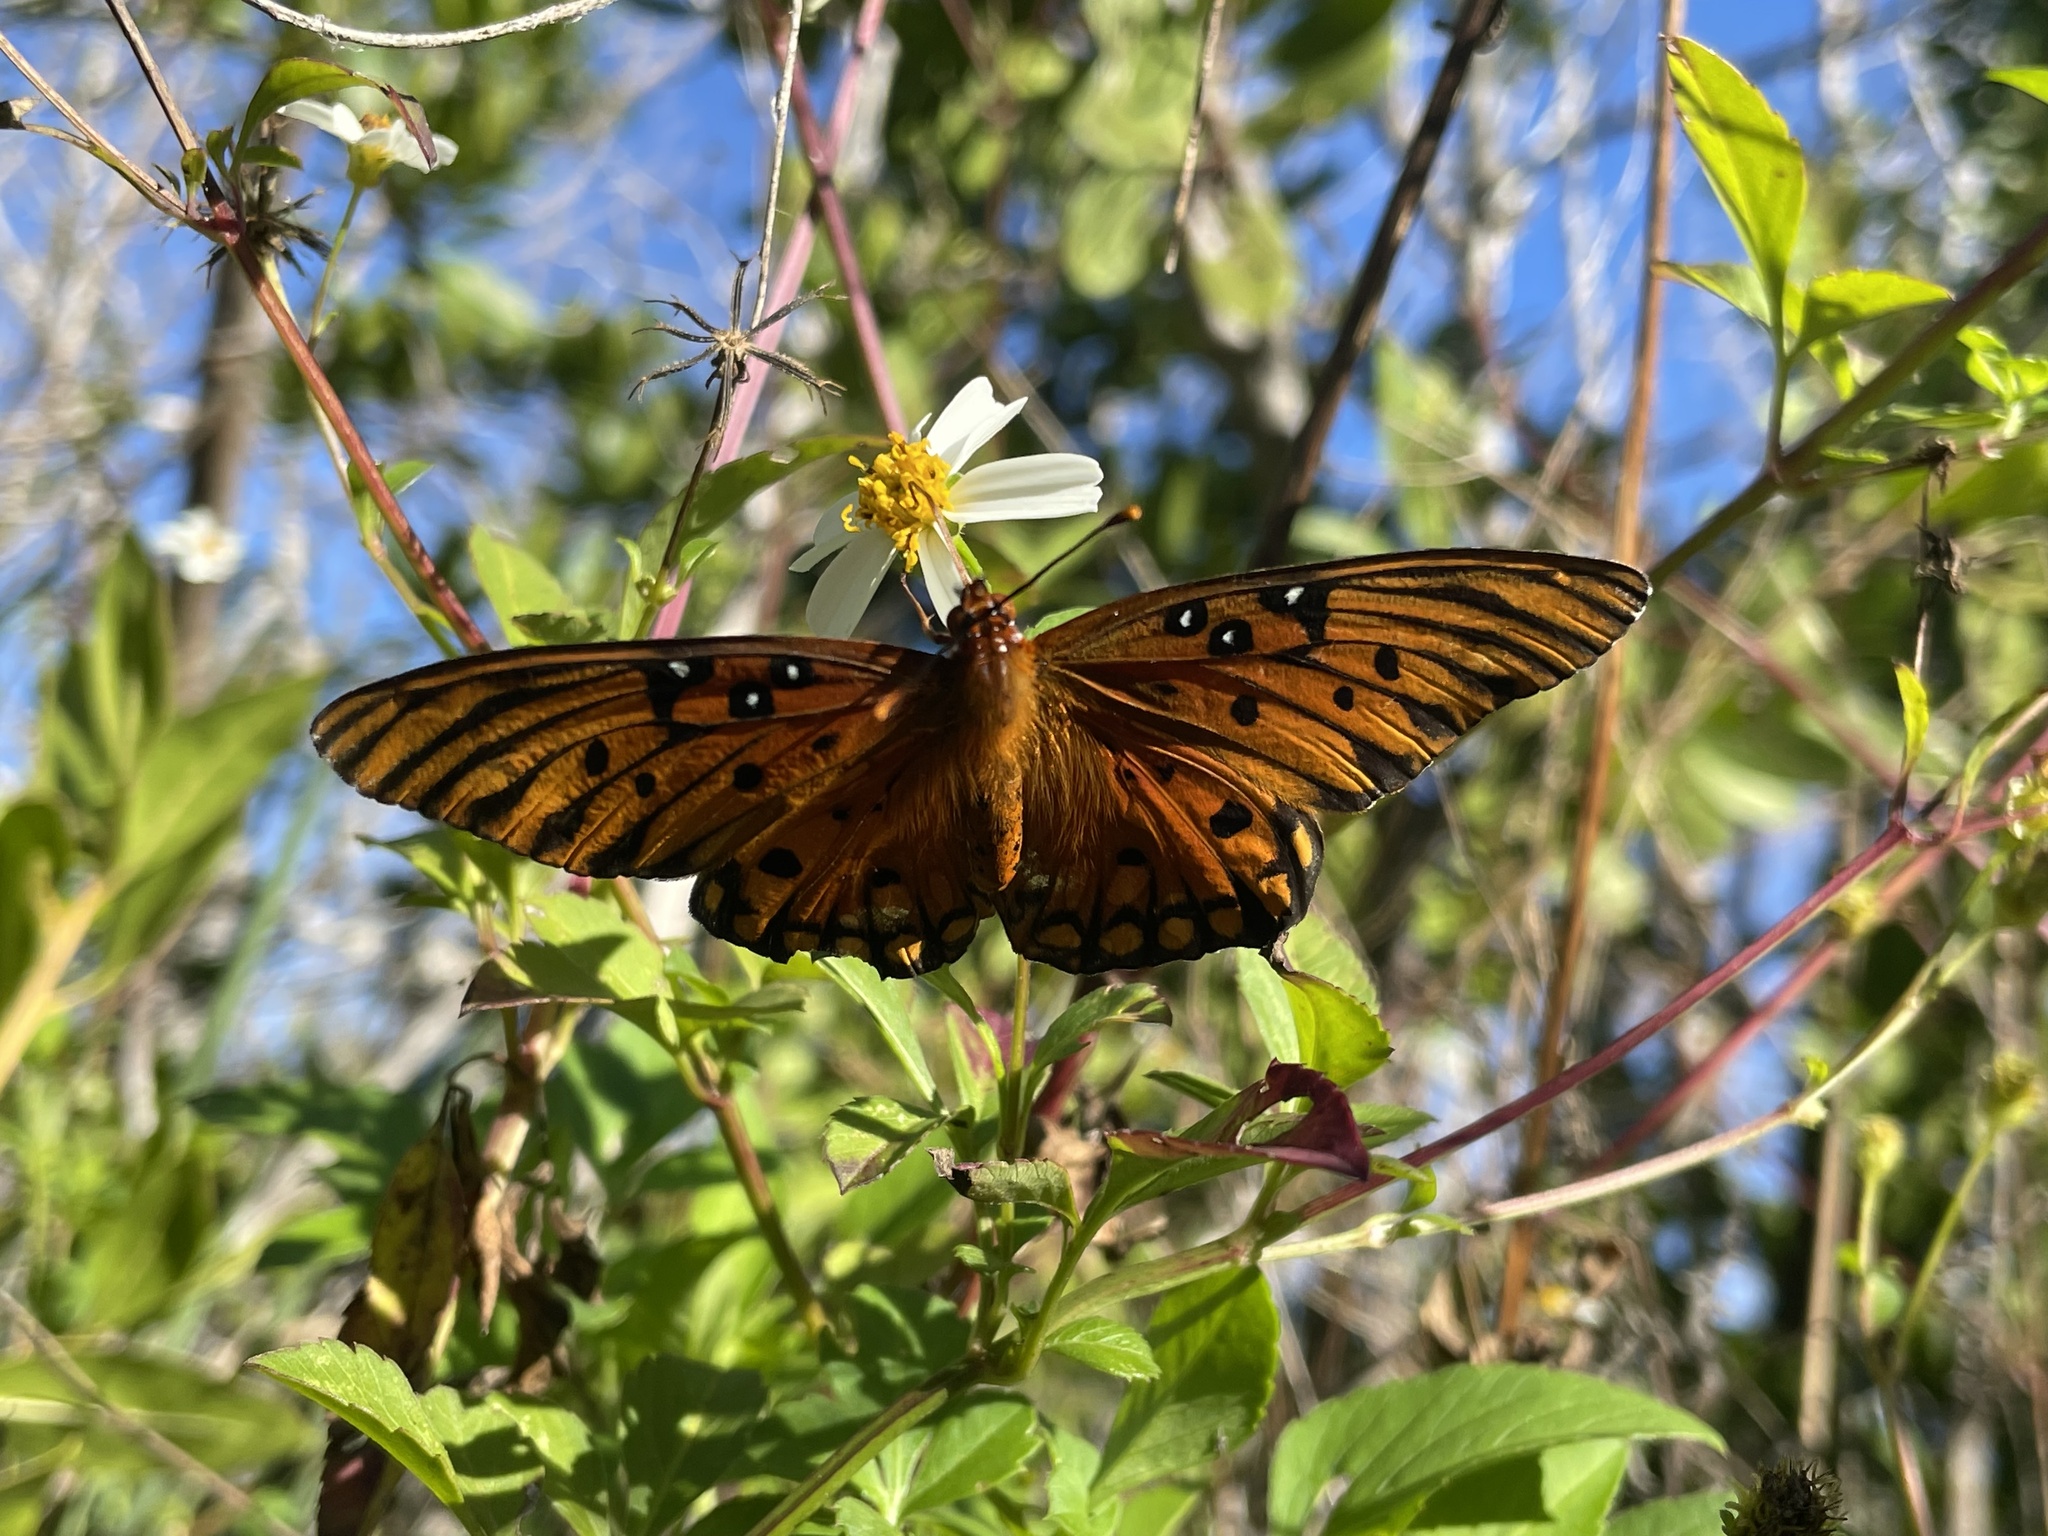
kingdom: Animalia
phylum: Arthropoda
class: Insecta
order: Lepidoptera
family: Nymphalidae
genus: Dione
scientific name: Dione vanillae
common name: Gulf fritillary
